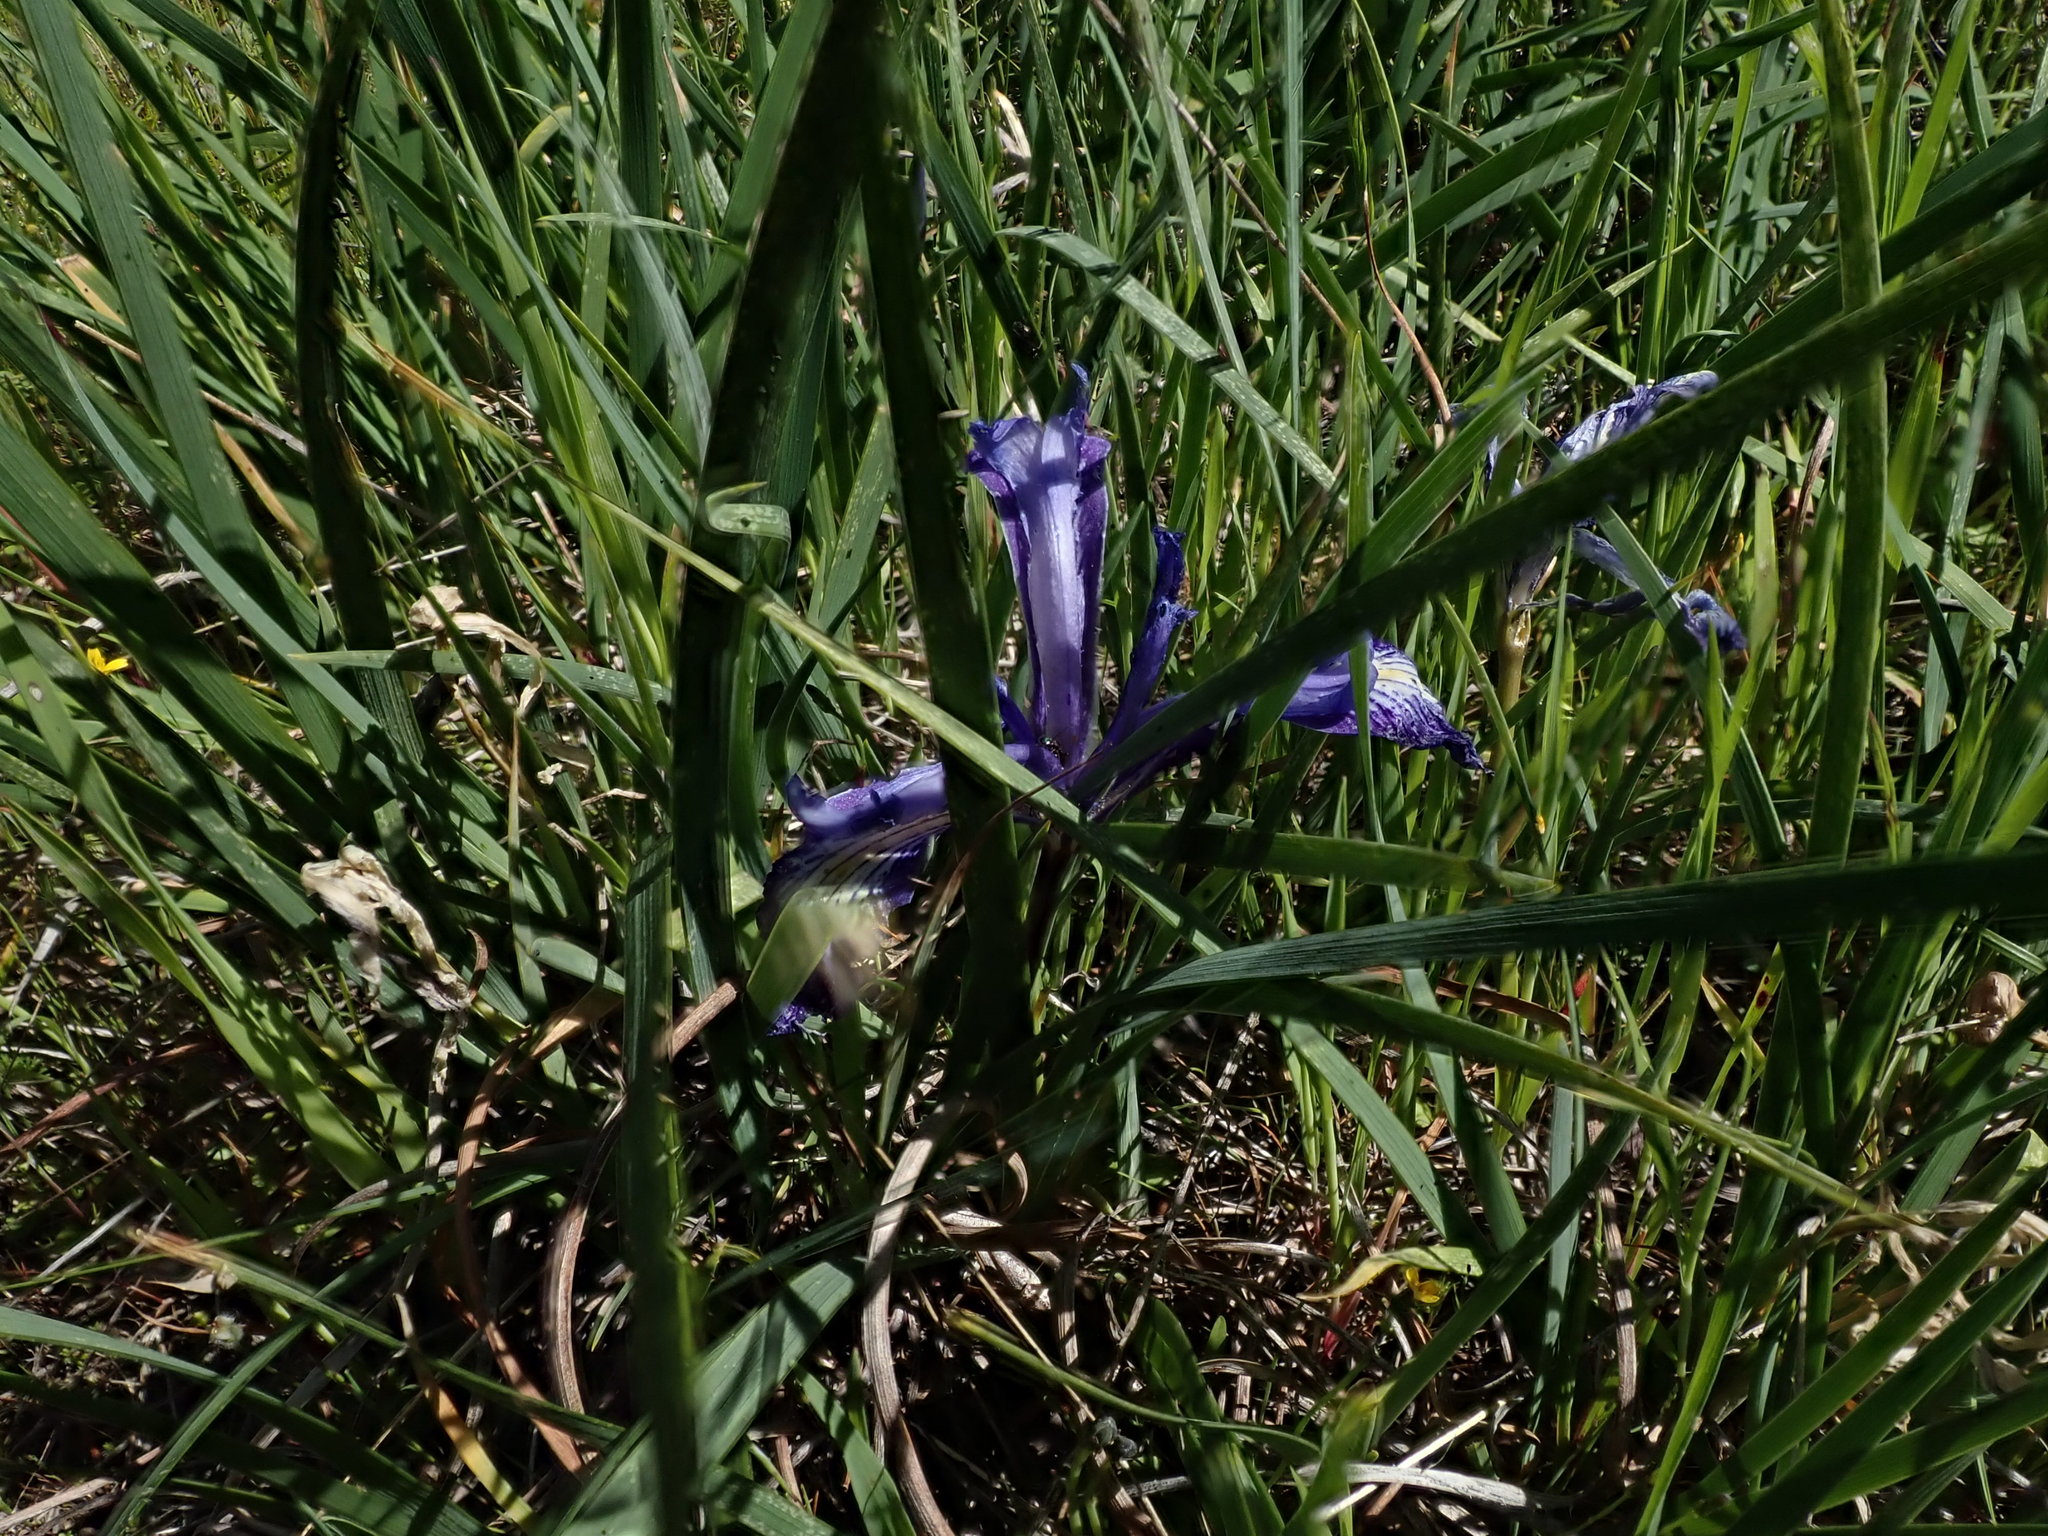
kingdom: Plantae
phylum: Tracheophyta
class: Liliopsida
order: Asparagales
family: Iridaceae
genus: Iris
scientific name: Iris macrosiphon
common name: Ground iris
